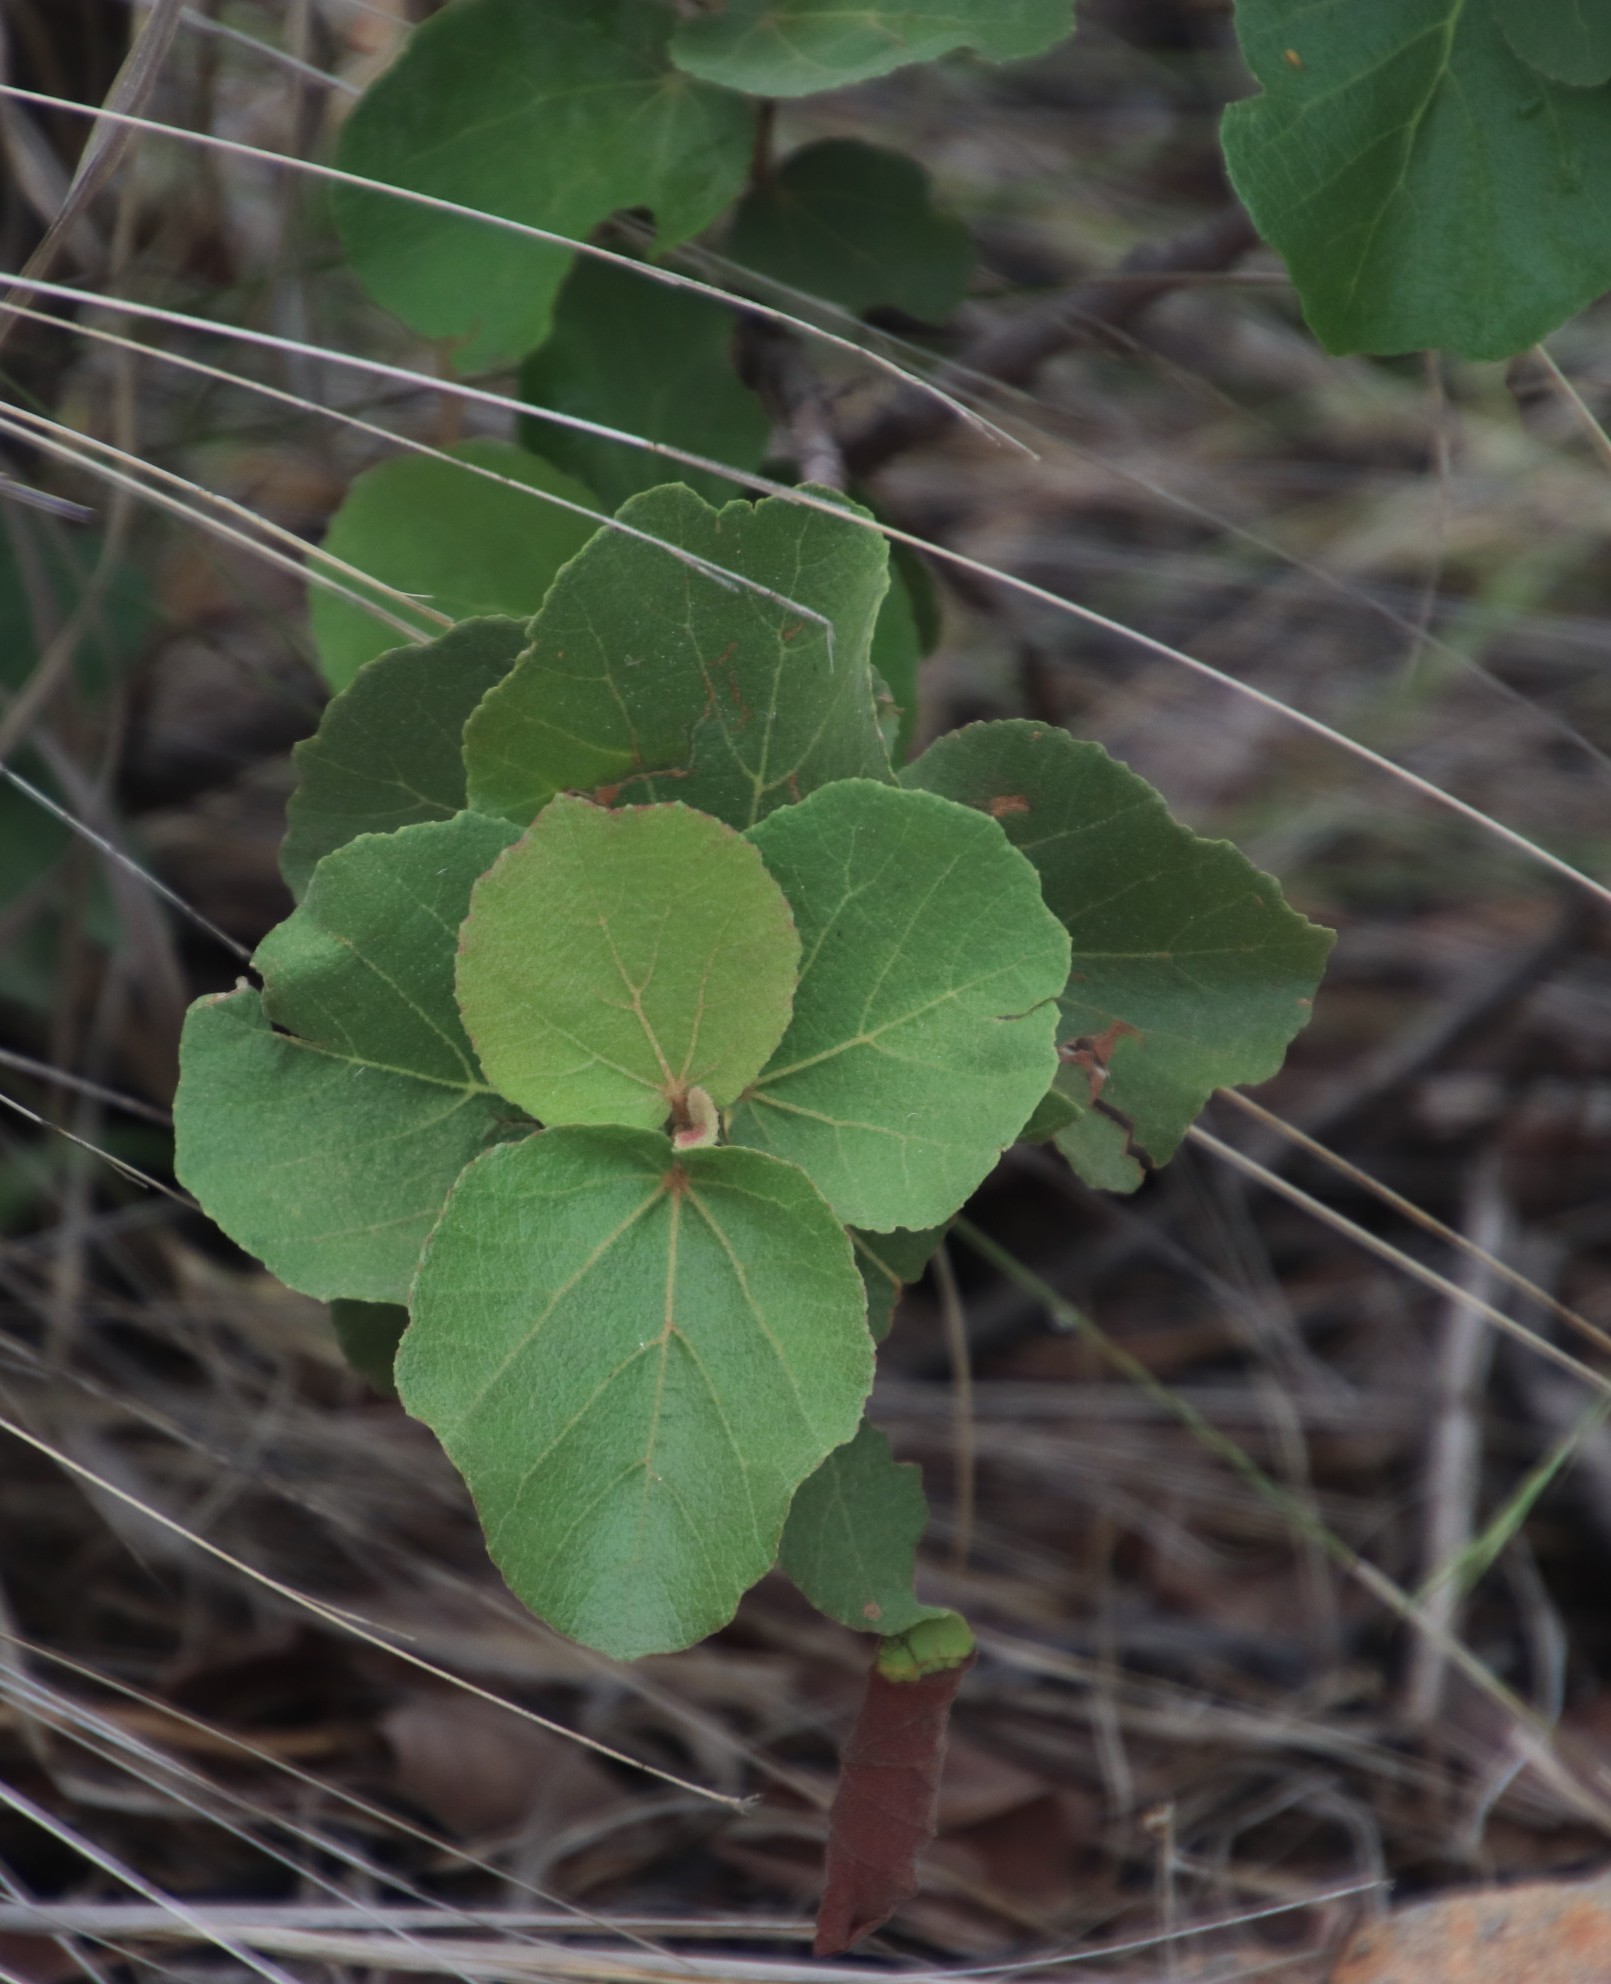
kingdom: Plantae
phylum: Tracheophyta
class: Magnoliopsida
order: Malvales
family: Malvaceae
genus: Dombeya
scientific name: Dombeya rotundifolia
